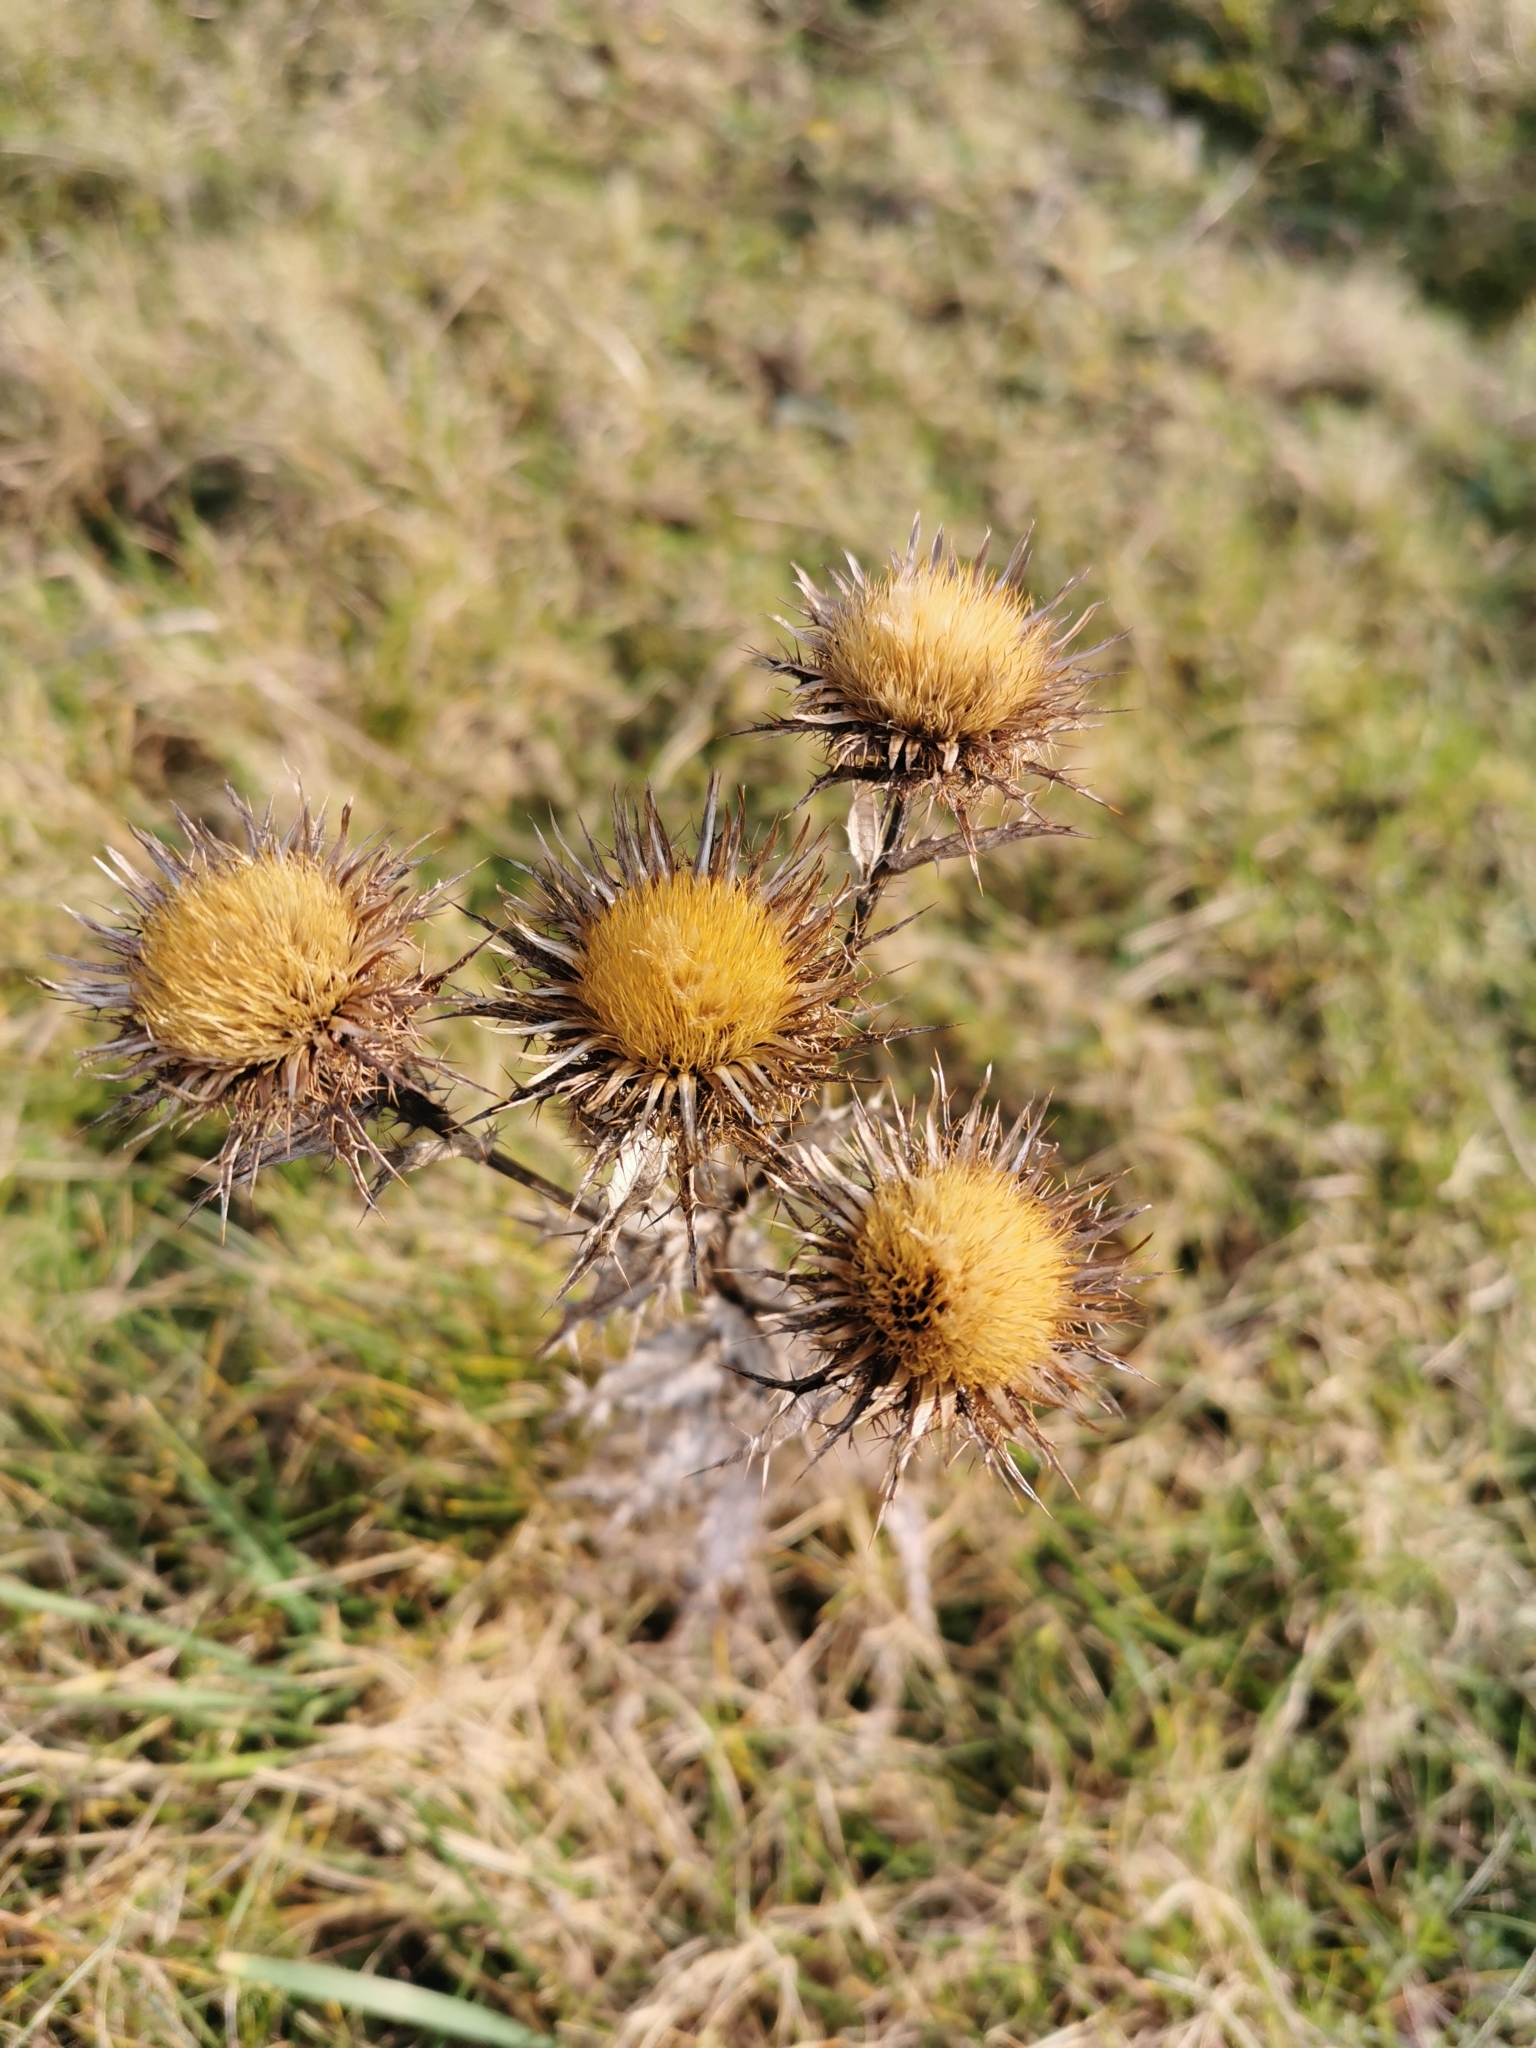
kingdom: Plantae
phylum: Tracheophyta
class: Magnoliopsida
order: Asterales
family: Asteraceae
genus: Carlina
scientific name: Carlina vulgaris
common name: Carline thistle
